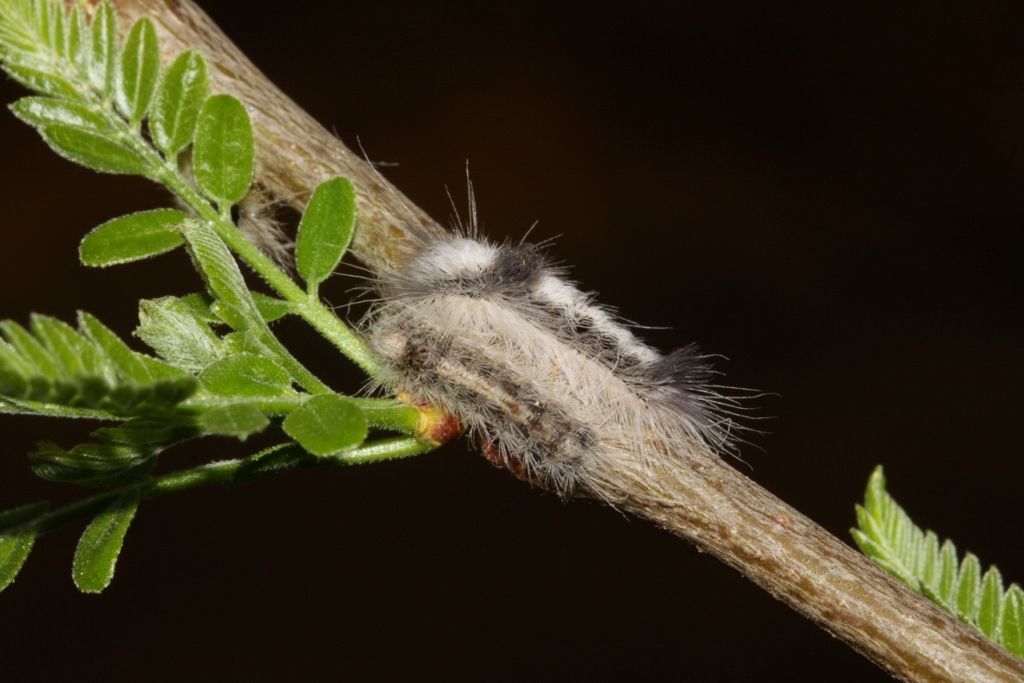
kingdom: Animalia
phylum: Arthropoda
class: Insecta
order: Lepidoptera
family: Erebidae
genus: Euproctis
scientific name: Euproctis bicolor
